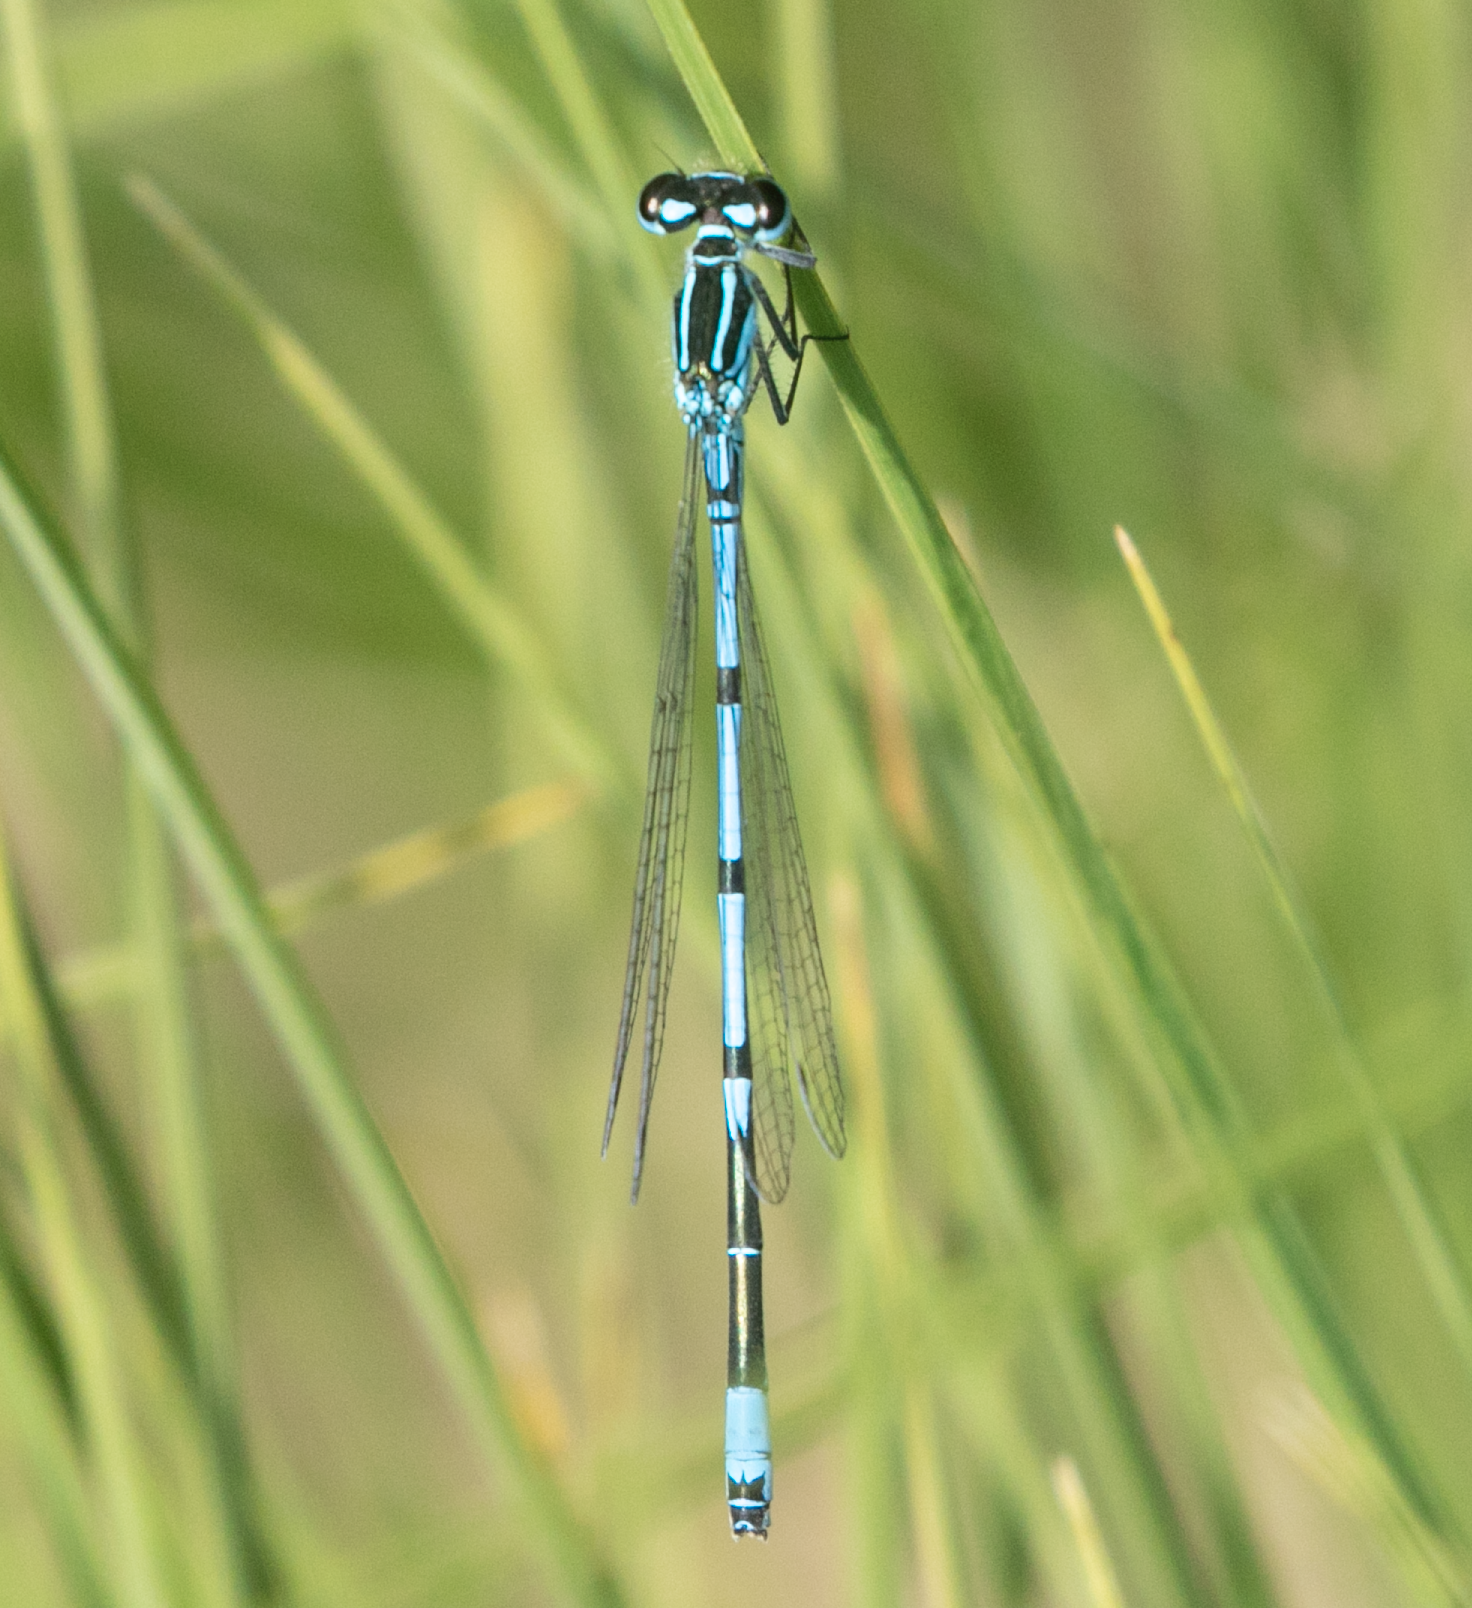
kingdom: Animalia
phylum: Arthropoda
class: Insecta
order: Odonata
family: Coenagrionidae
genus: Coenagrion
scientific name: Coenagrion puella
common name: Azure damselfly
